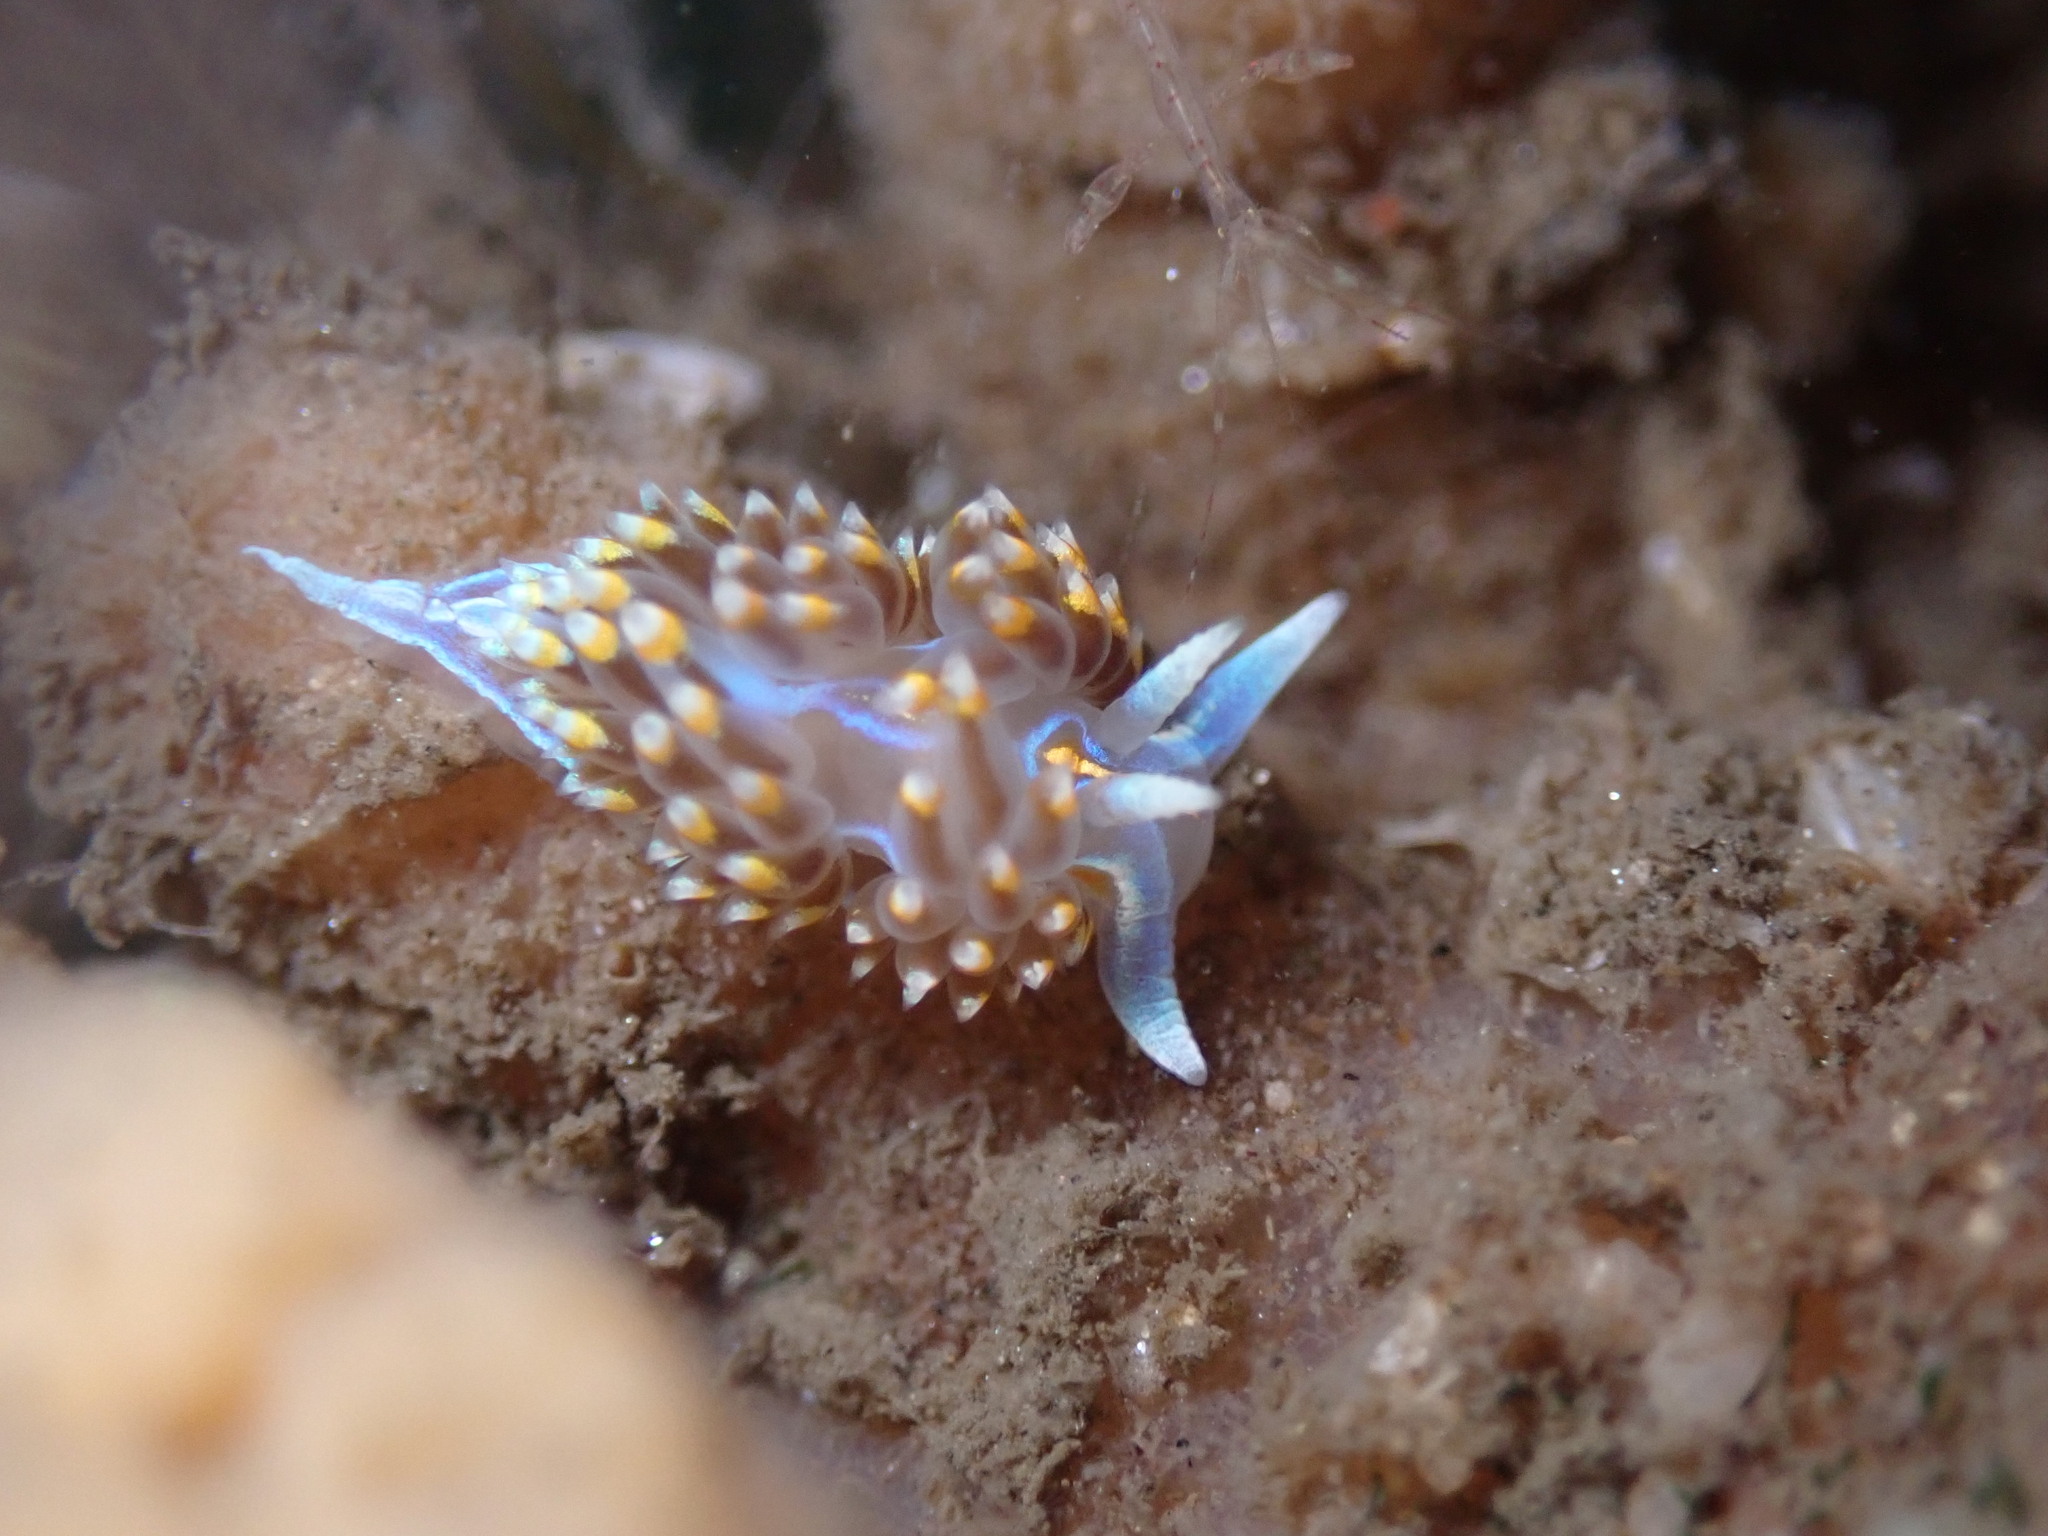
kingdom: Animalia
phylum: Mollusca
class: Gastropoda
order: Nudibranchia
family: Myrrhinidae
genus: Hermissenda
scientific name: Hermissenda opalescens
